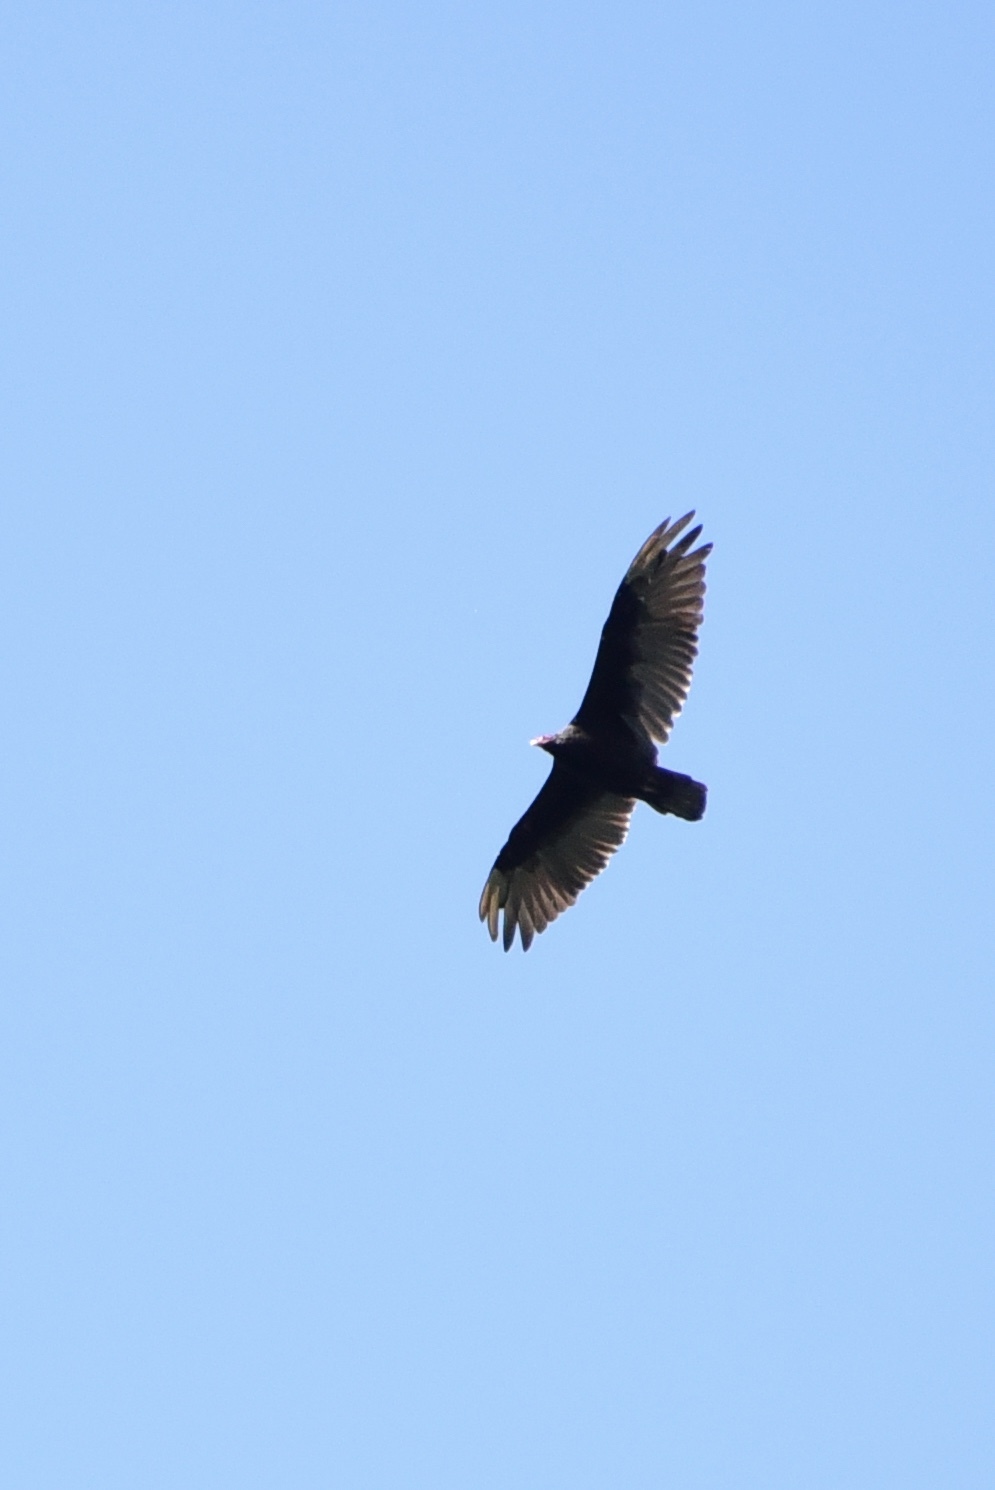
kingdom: Animalia
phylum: Chordata
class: Aves
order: Accipitriformes
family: Cathartidae
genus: Cathartes
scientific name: Cathartes aura
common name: Turkey vulture
